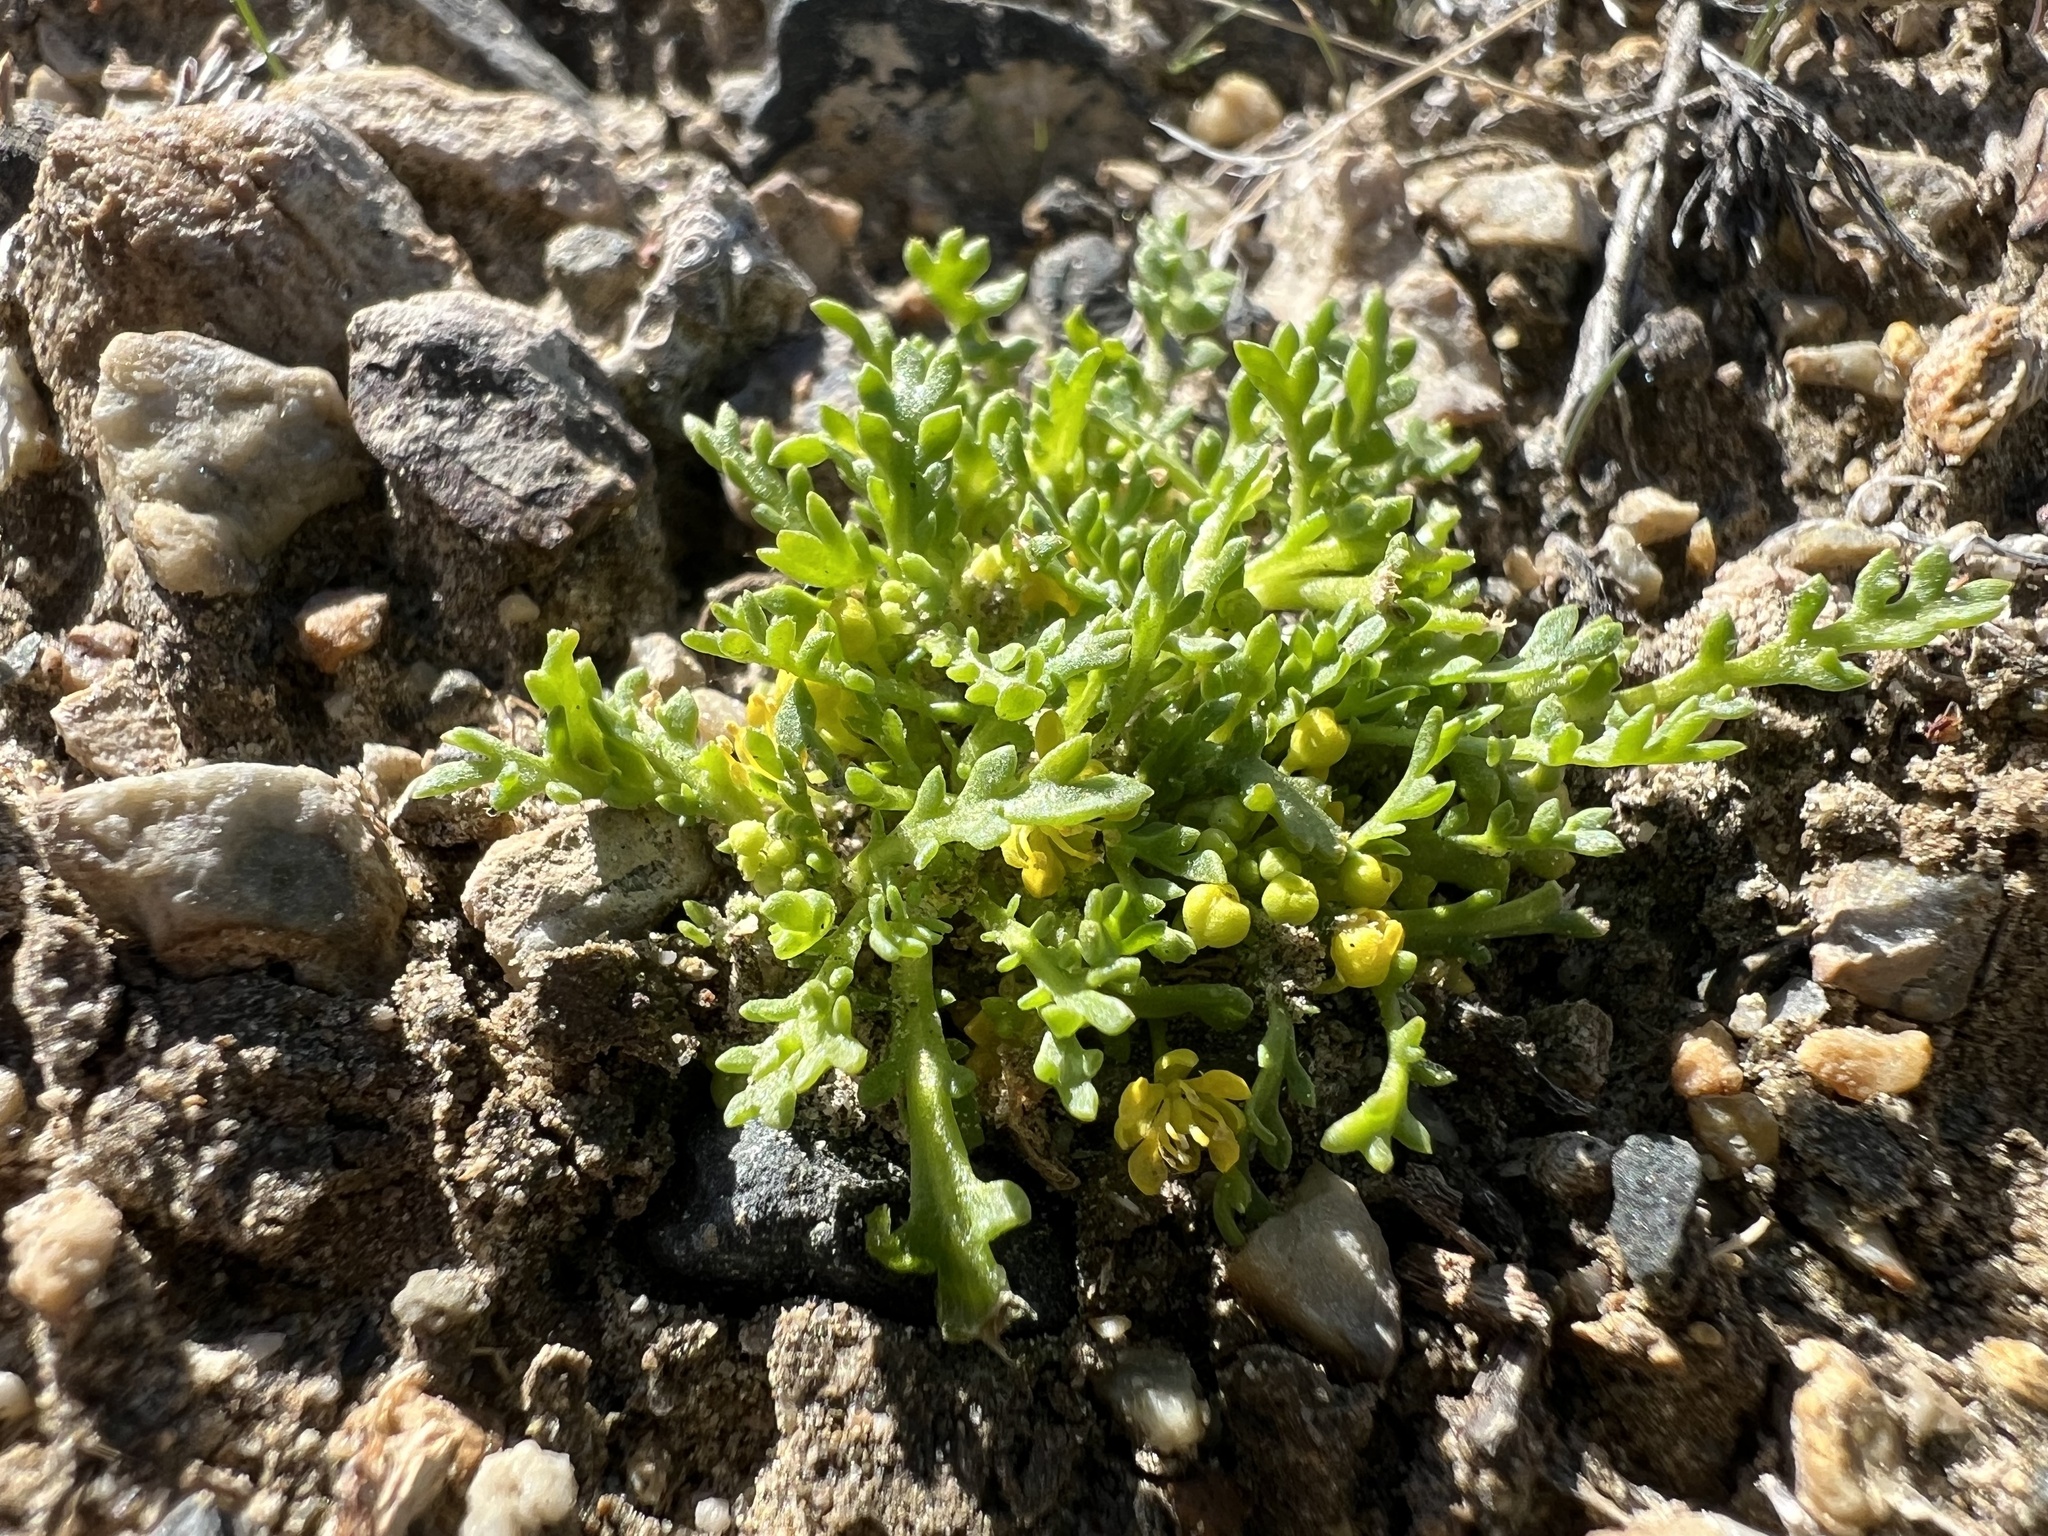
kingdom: Plantae
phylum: Tracheophyta
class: Magnoliopsida
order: Brassicales
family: Brassicaceae
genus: Lepidium
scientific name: Lepidium flavum
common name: Yellow pepperwort
